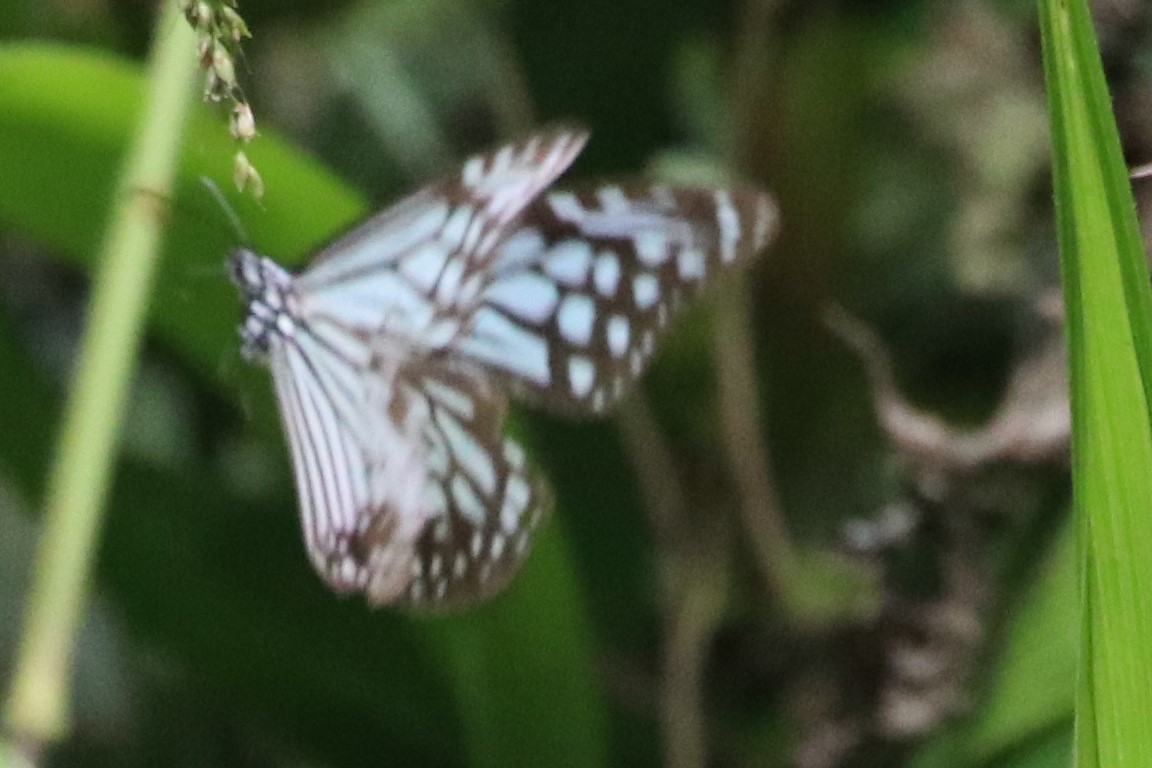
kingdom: Animalia
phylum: Arthropoda
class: Insecta
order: Lepidoptera
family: Nymphalidae
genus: Parantica
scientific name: Parantica aglea
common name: Glassy tiger
